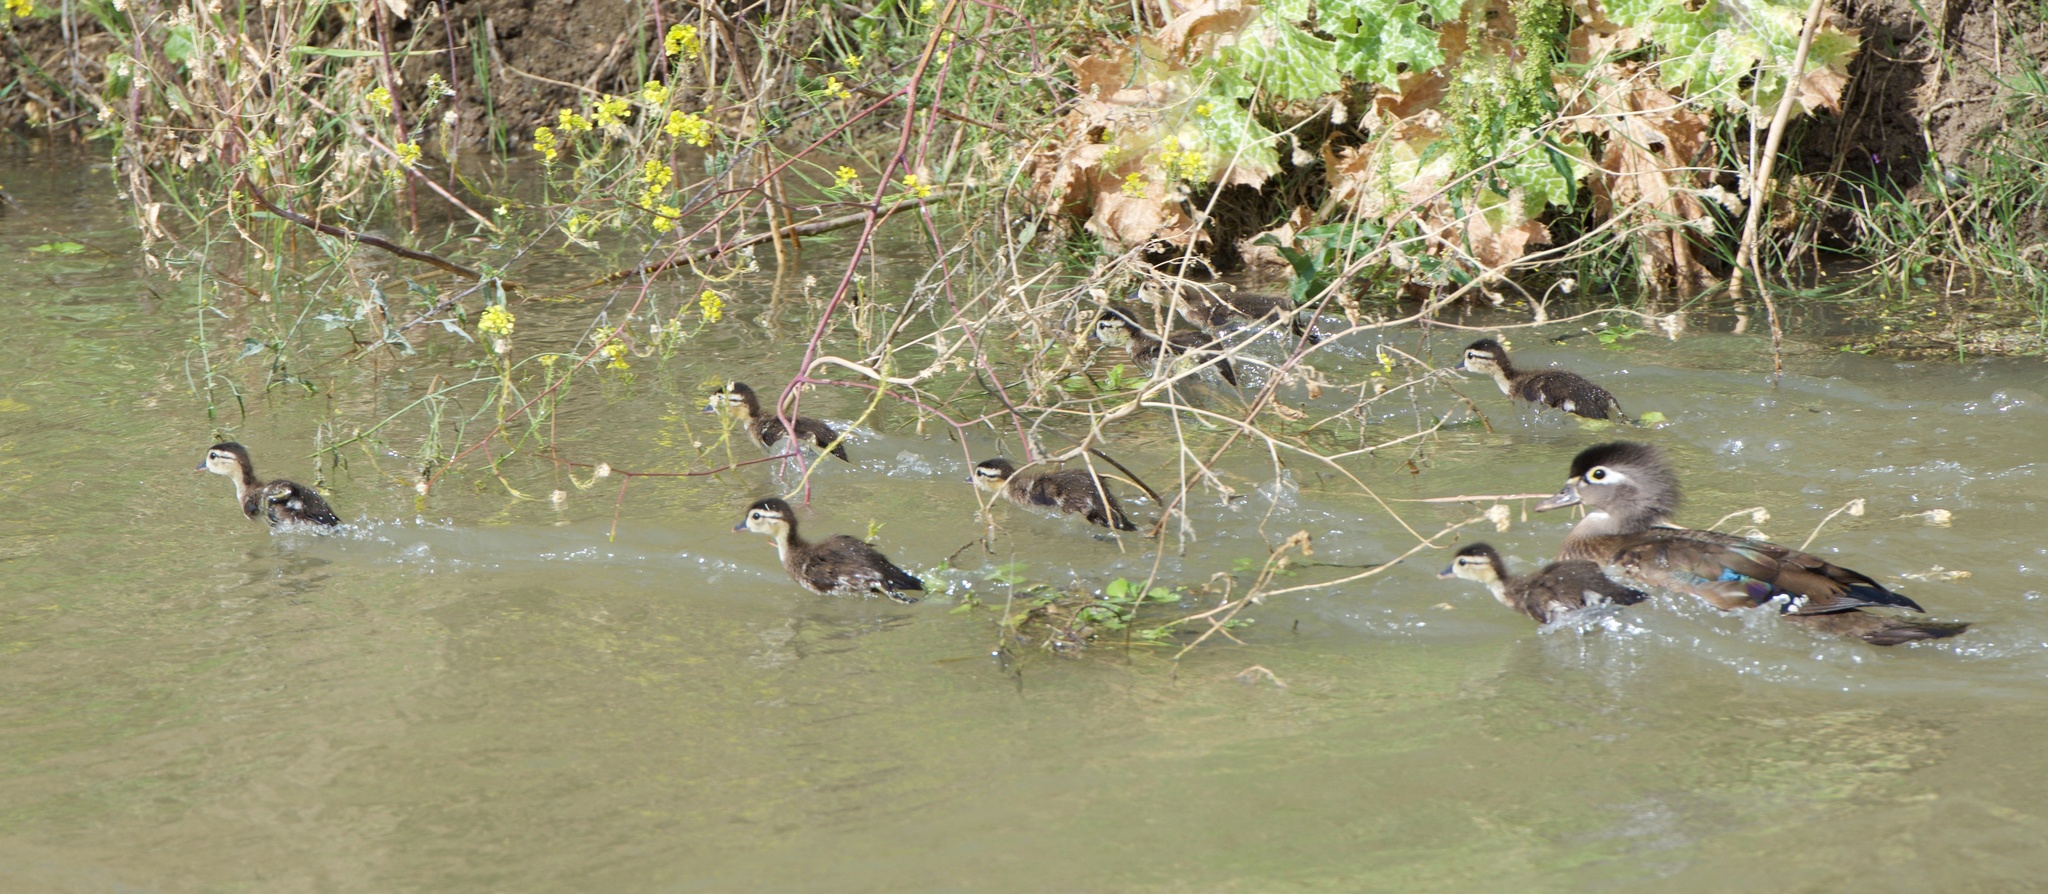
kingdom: Animalia
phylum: Chordata
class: Aves
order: Anseriformes
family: Anatidae
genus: Aix
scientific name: Aix sponsa
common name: Wood duck
